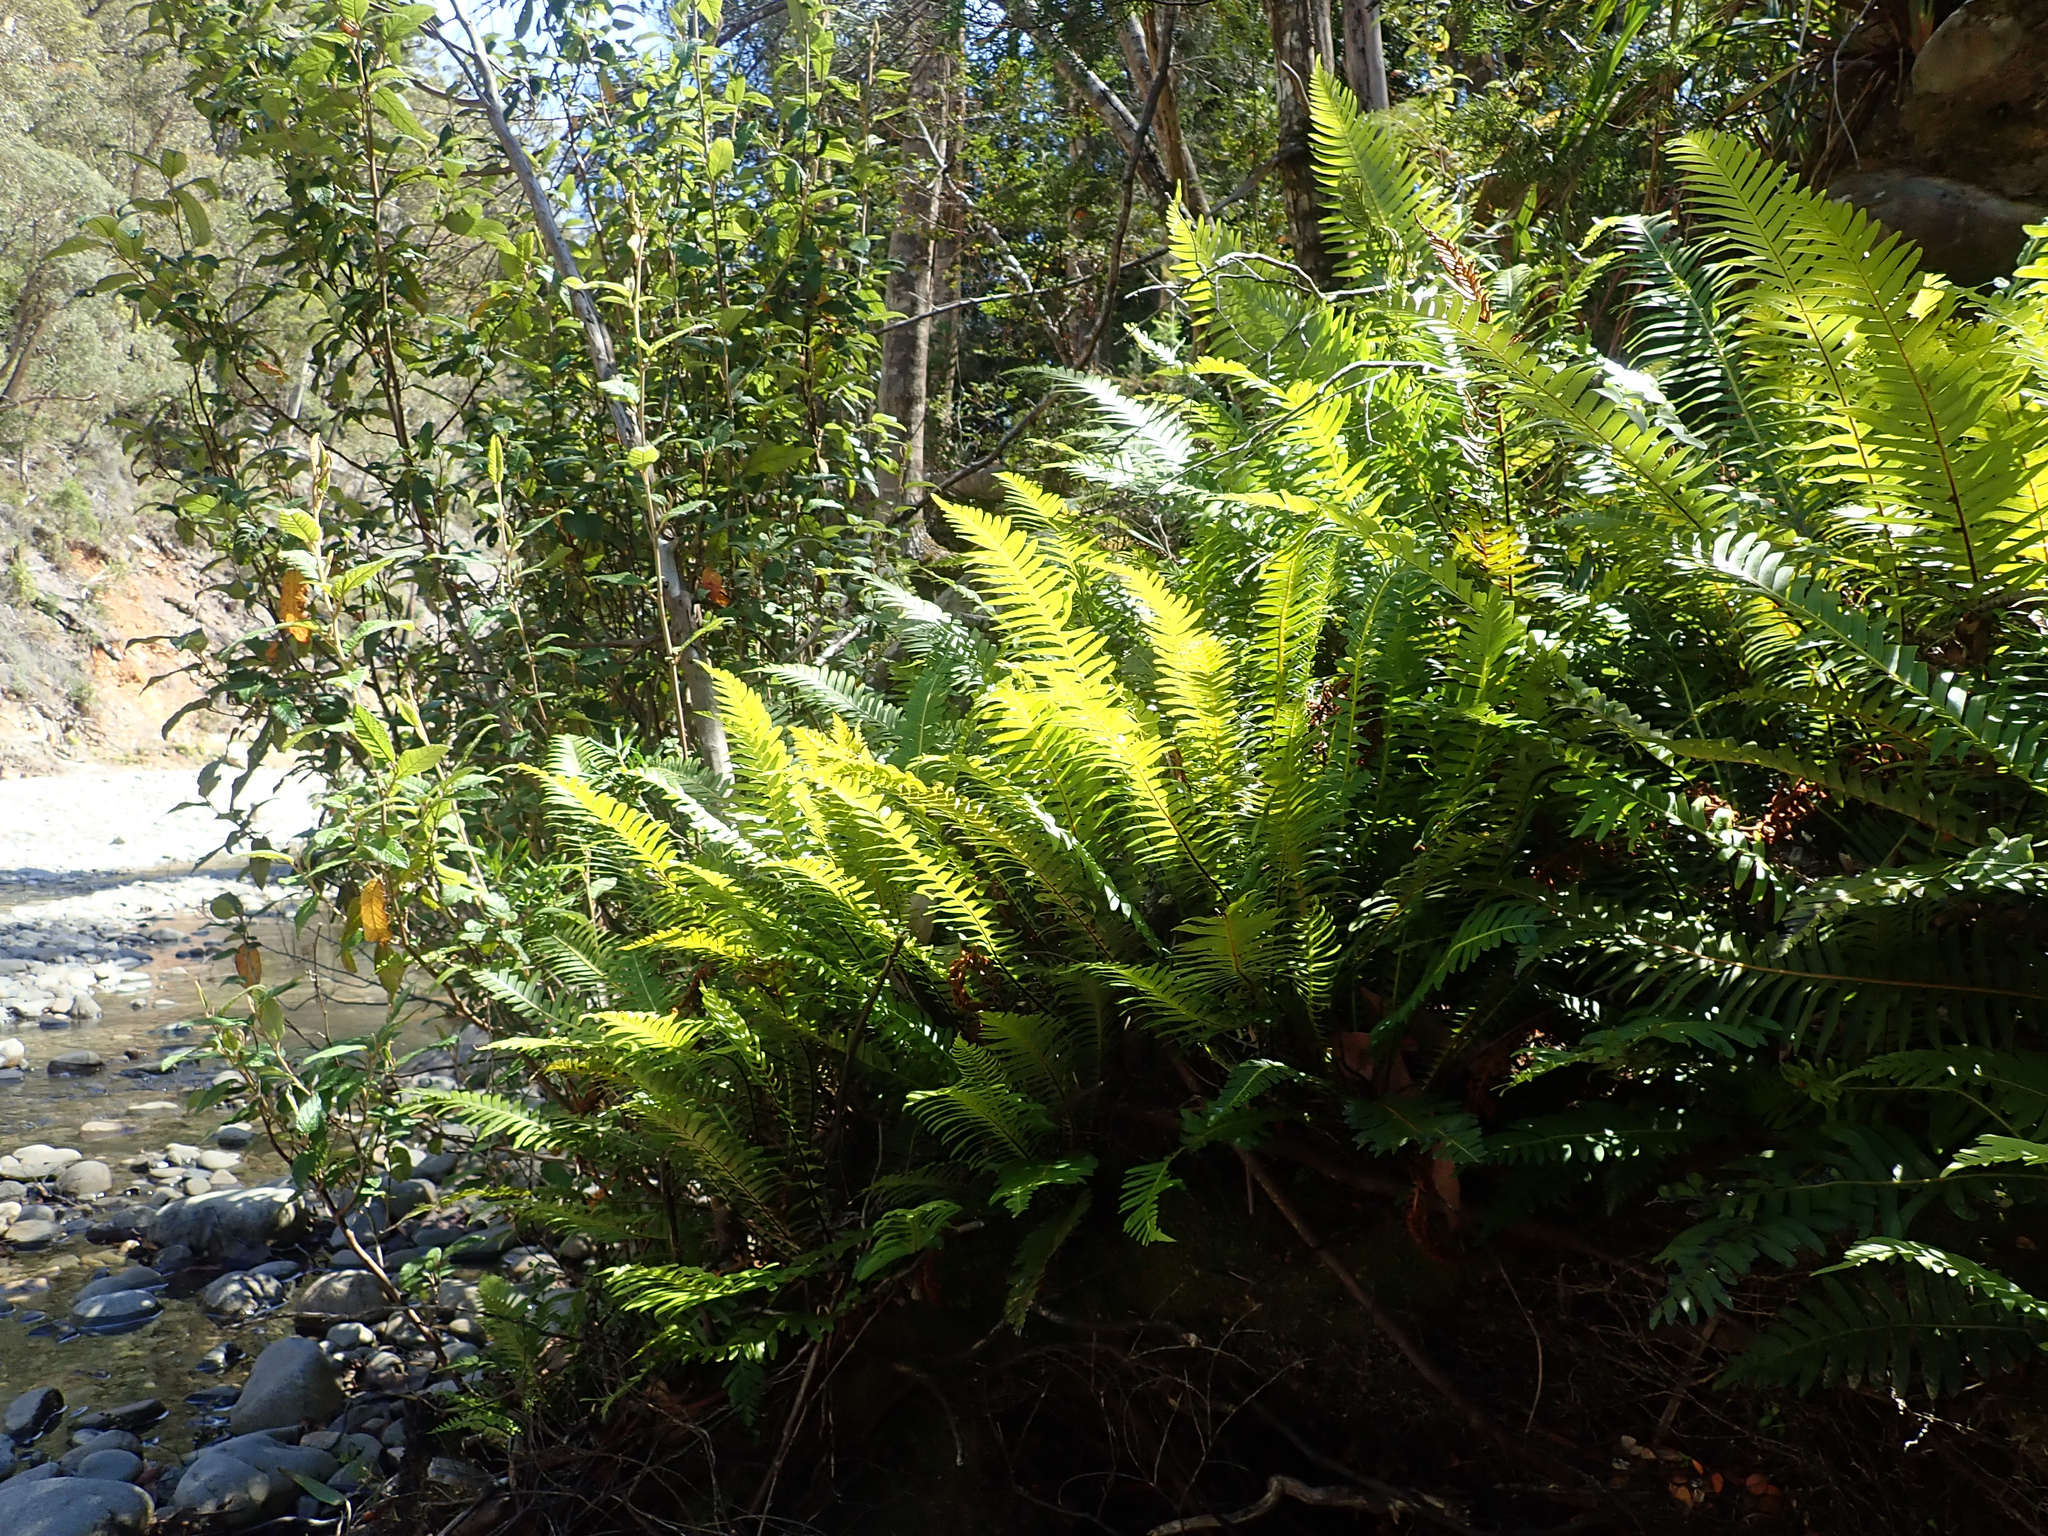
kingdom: Plantae
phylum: Tracheophyta
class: Polypodiopsida
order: Polypodiales
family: Blechnaceae
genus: Lomaria
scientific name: Lomaria nuda
